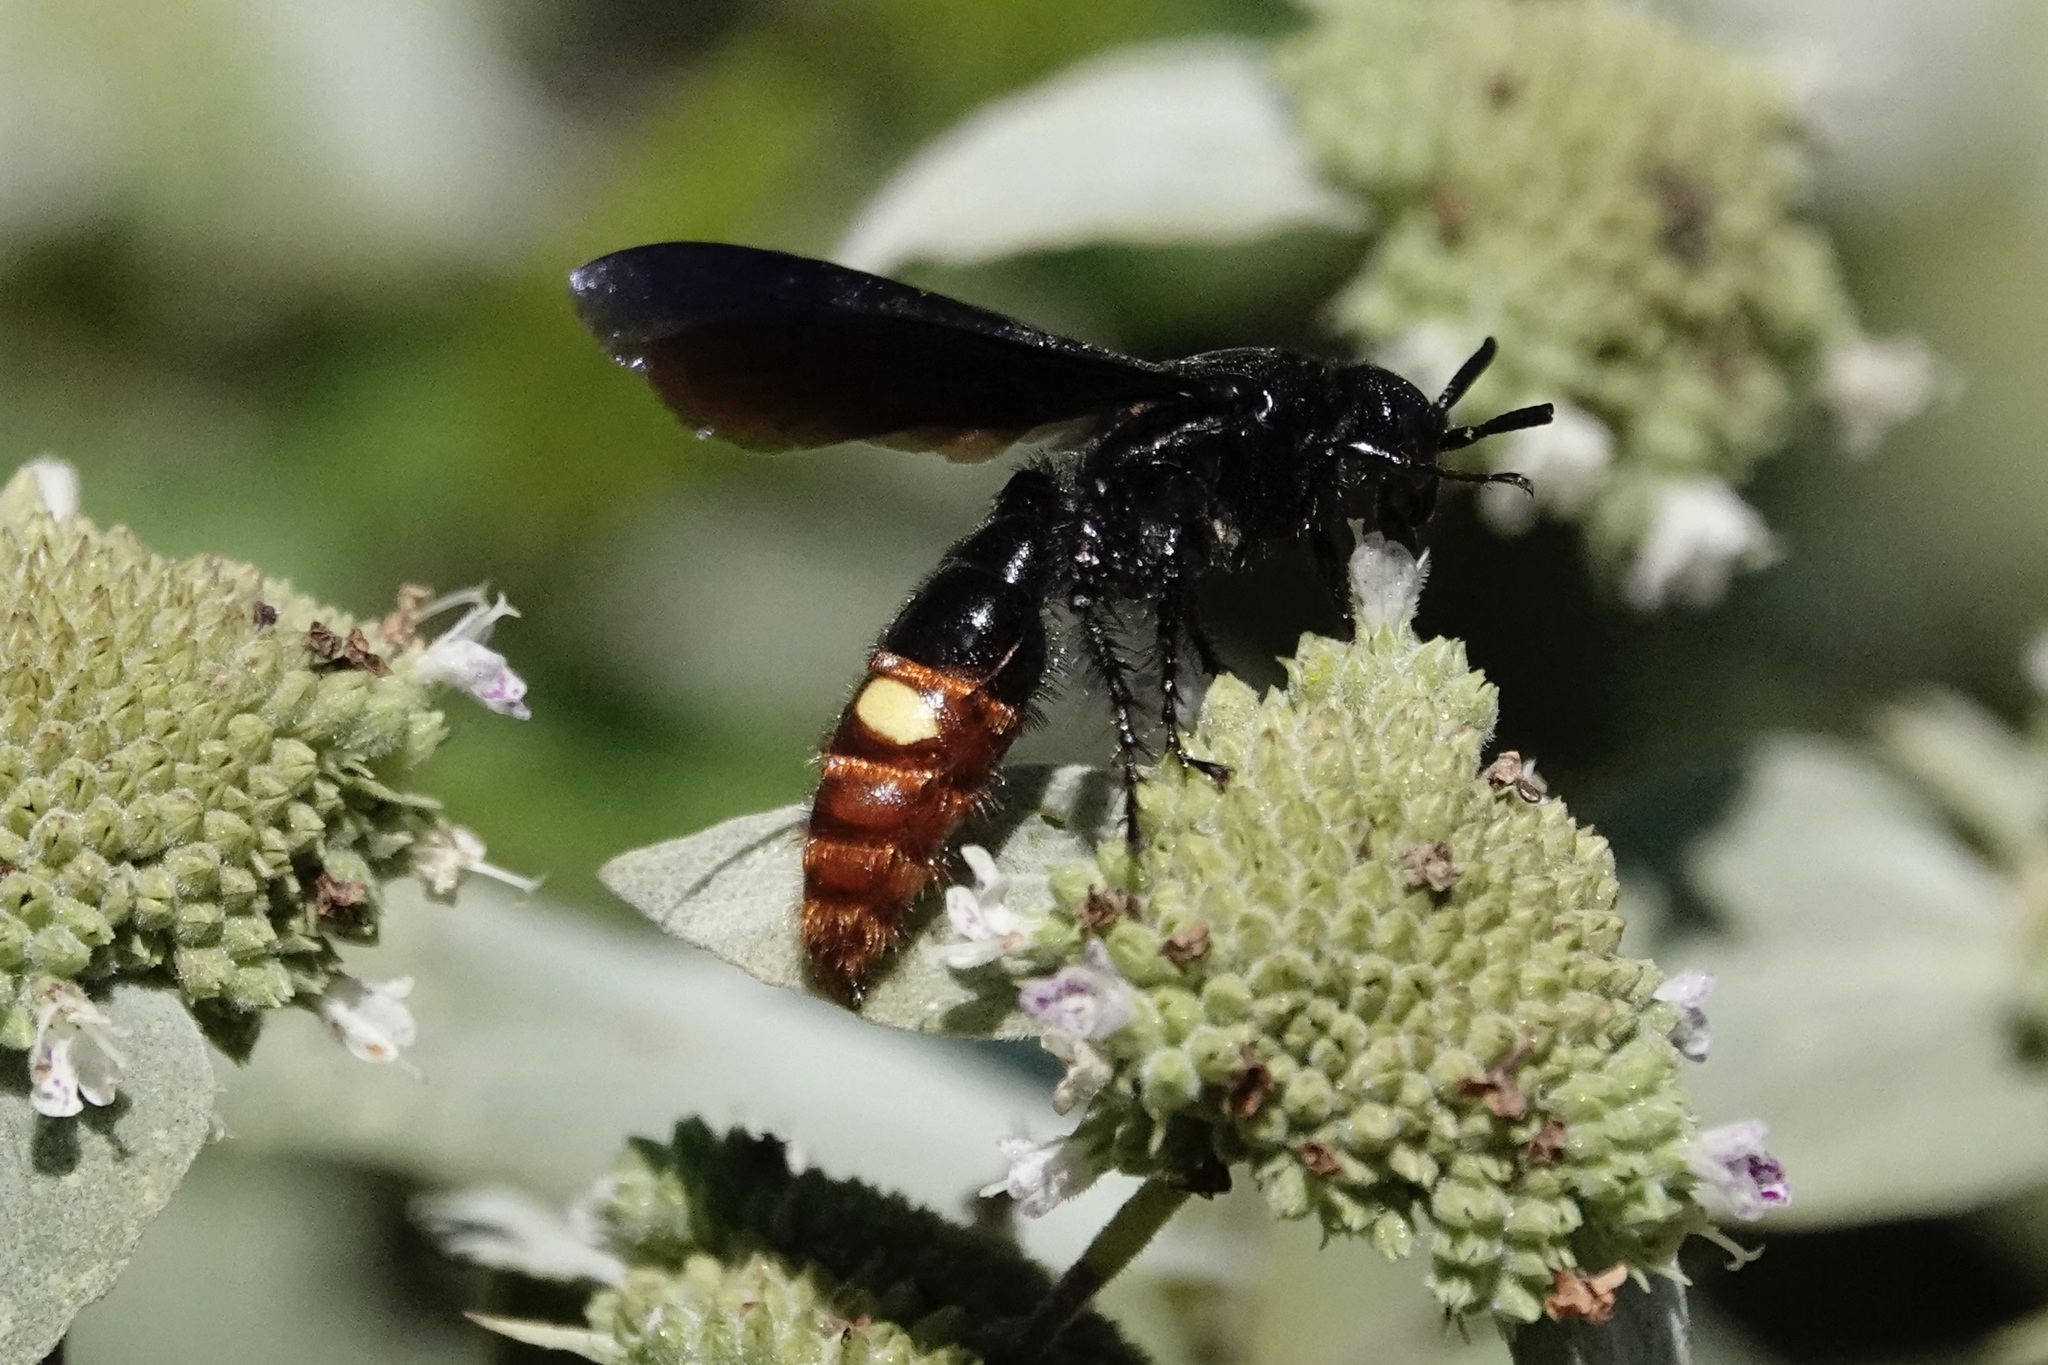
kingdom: Animalia
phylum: Arthropoda
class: Insecta
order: Hymenoptera
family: Scoliidae
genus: Scolia
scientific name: Scolia dubia
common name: Blue-winged scoliid wasp
